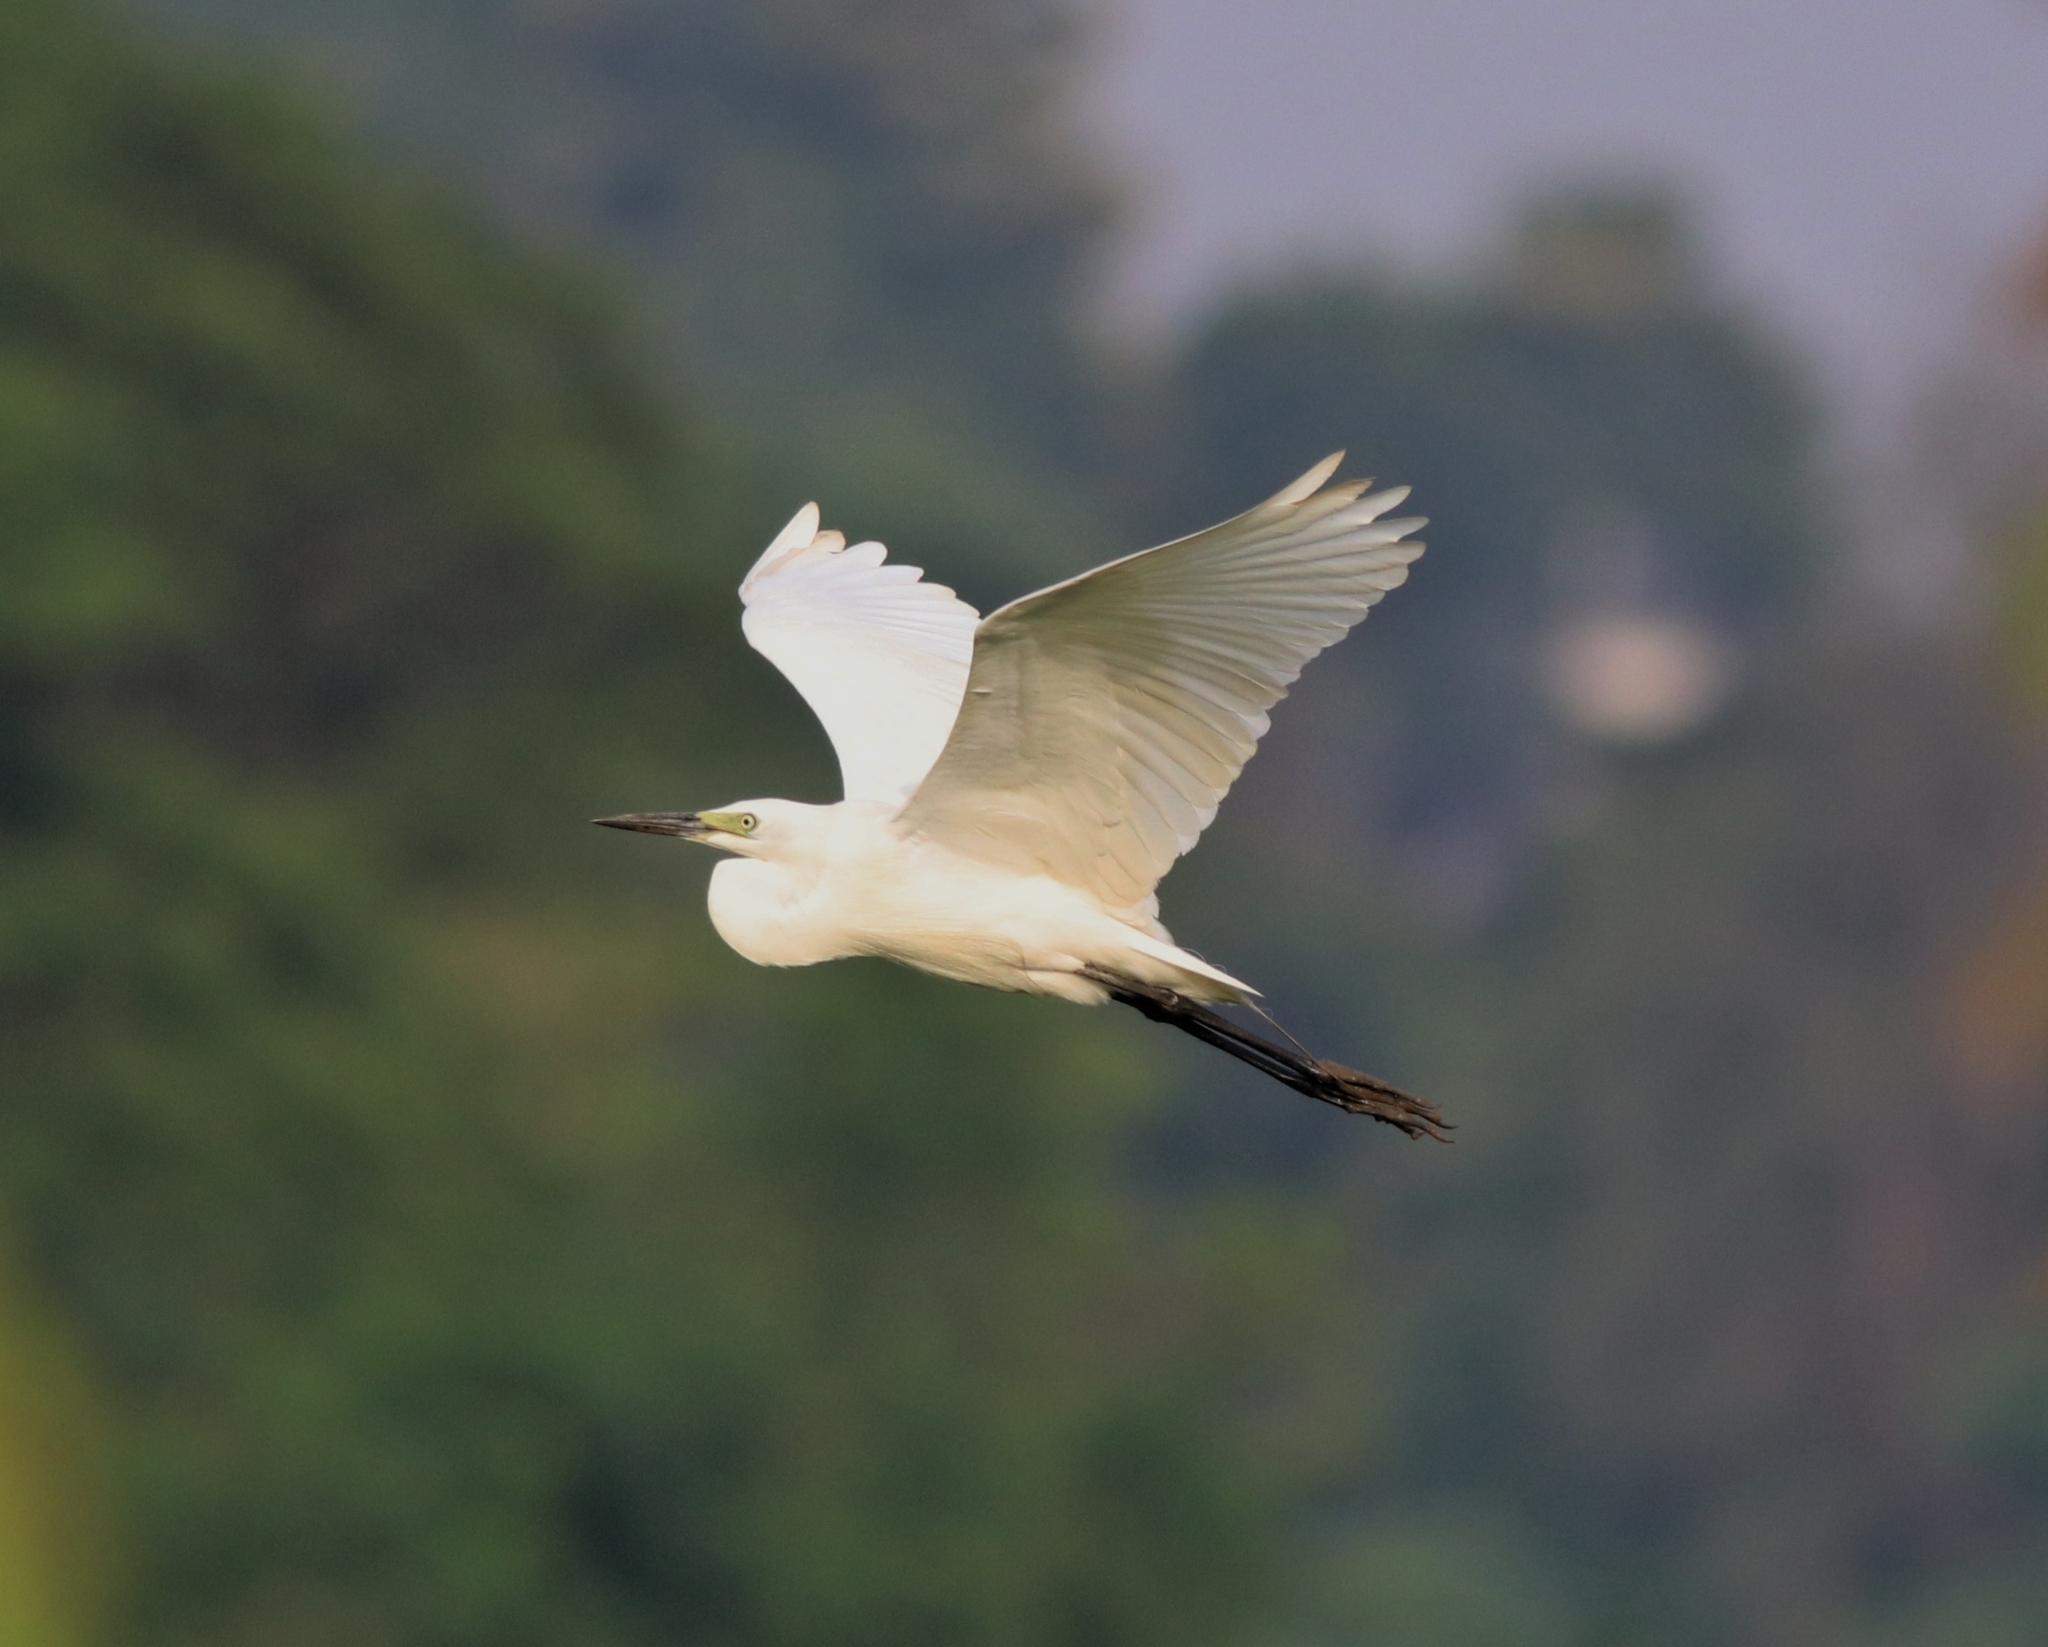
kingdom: Animalia
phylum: Chordata
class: Aves
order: Pelecaniformes
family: Ardeidae
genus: Egretta
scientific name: Egretta intermedia
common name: Intermediate egret
